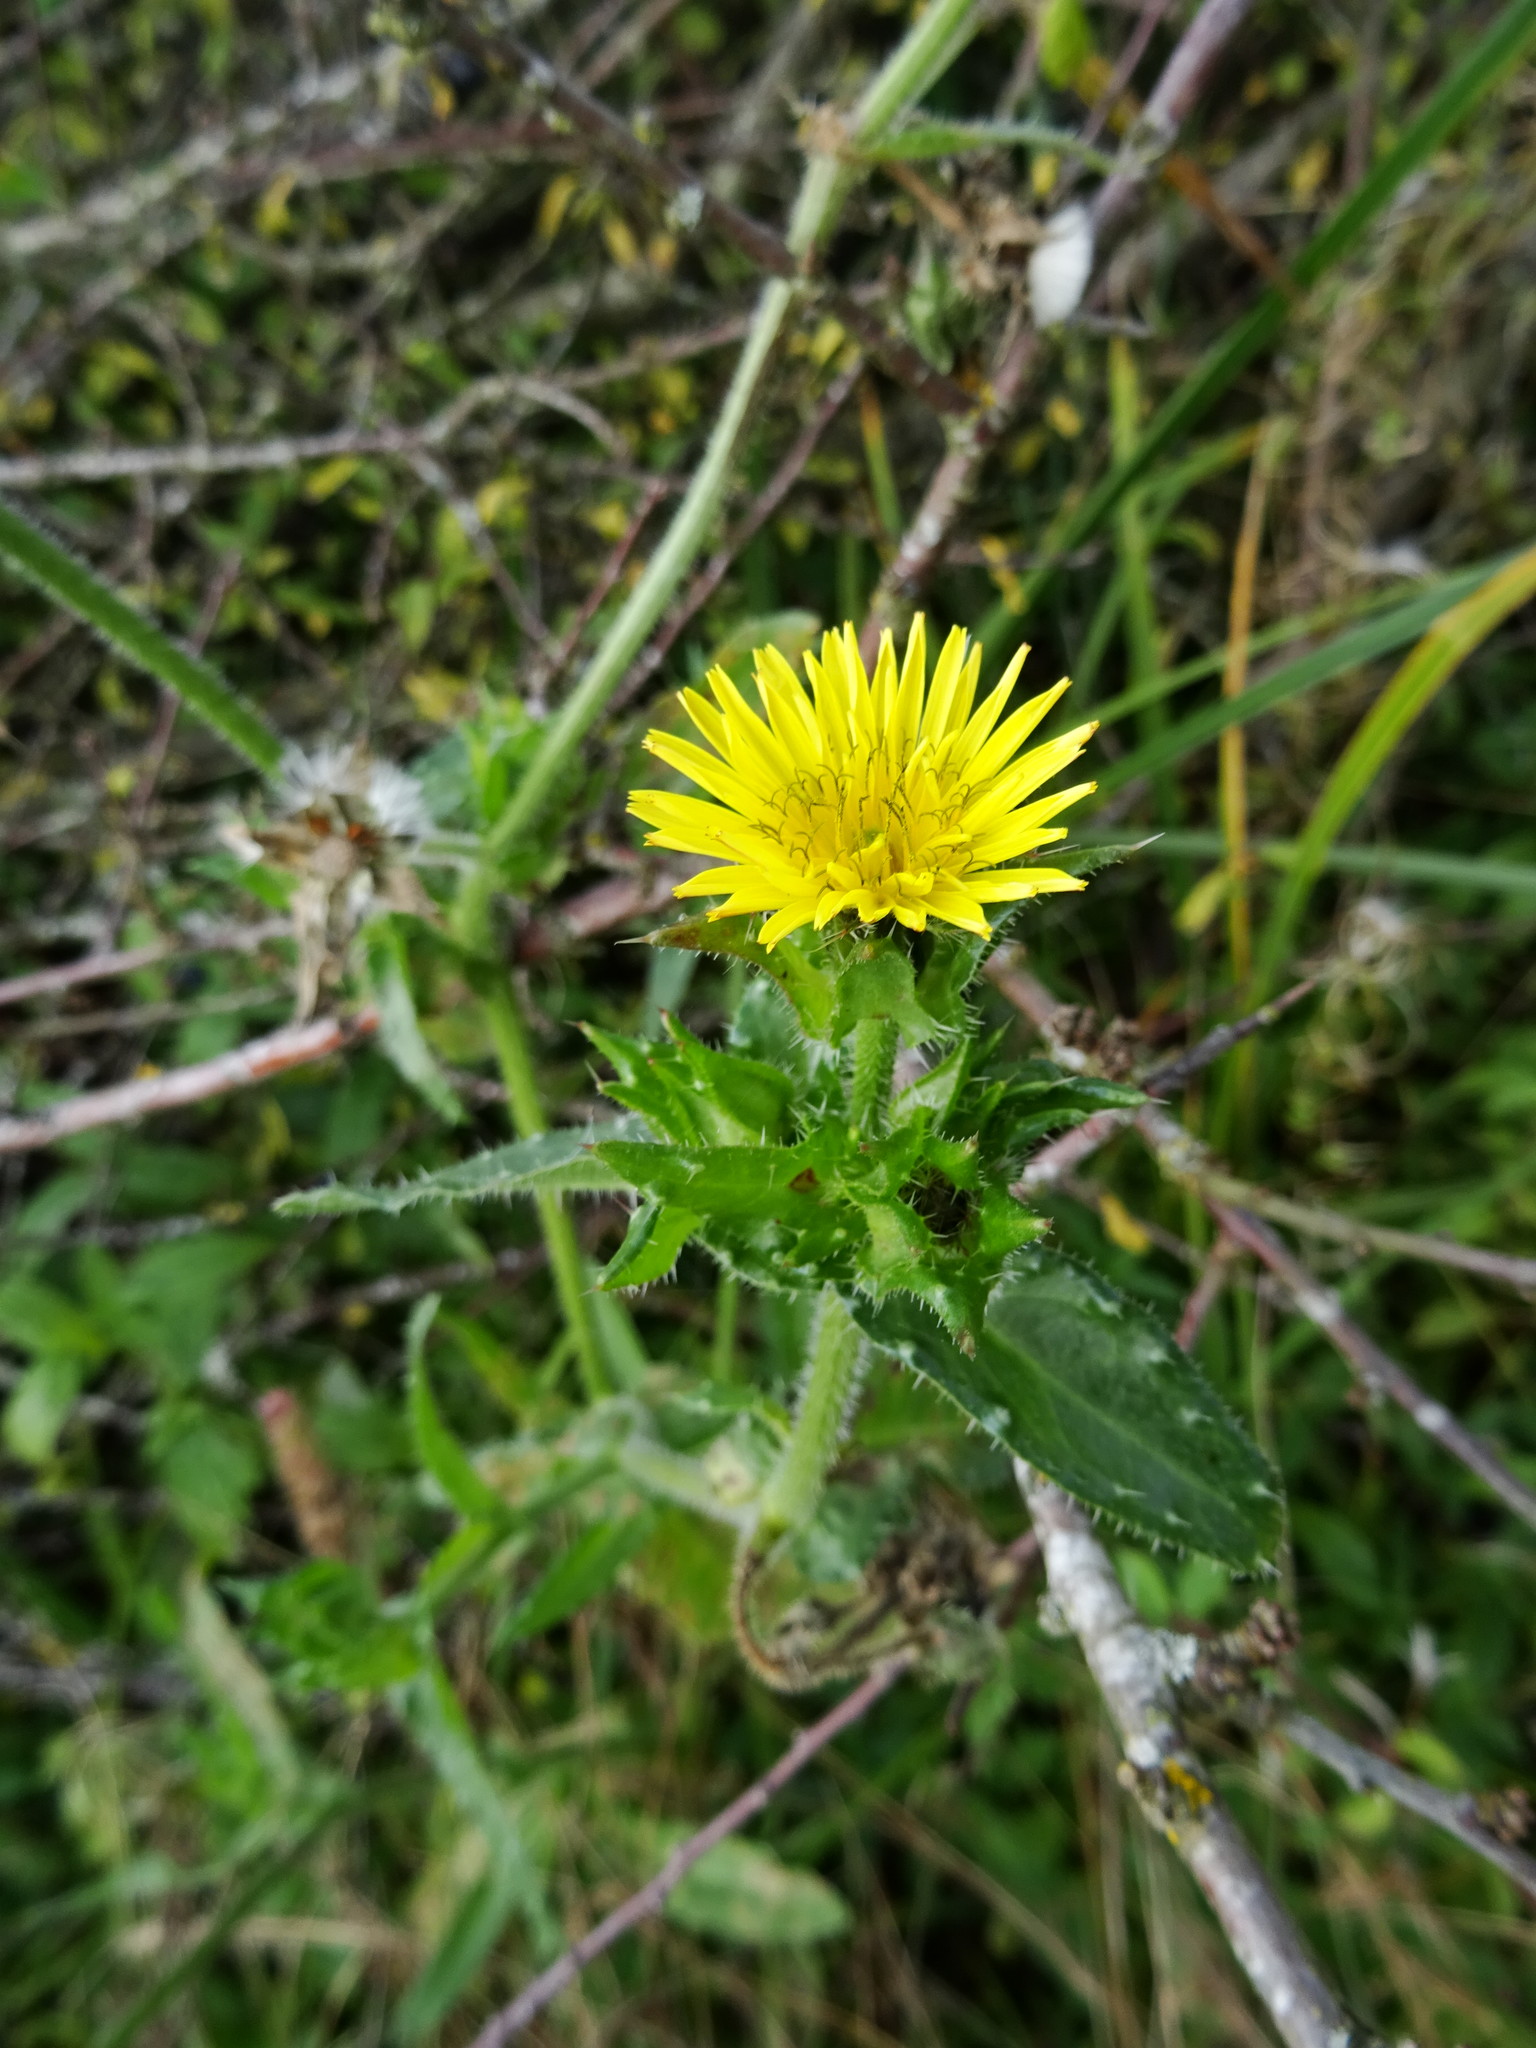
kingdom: Plantae
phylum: Tracheophyta
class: Magnoliopsida
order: Asterales
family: Asteraceae
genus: Helminthotheca
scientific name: Helminthotheca echioides
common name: Ox-tongue
